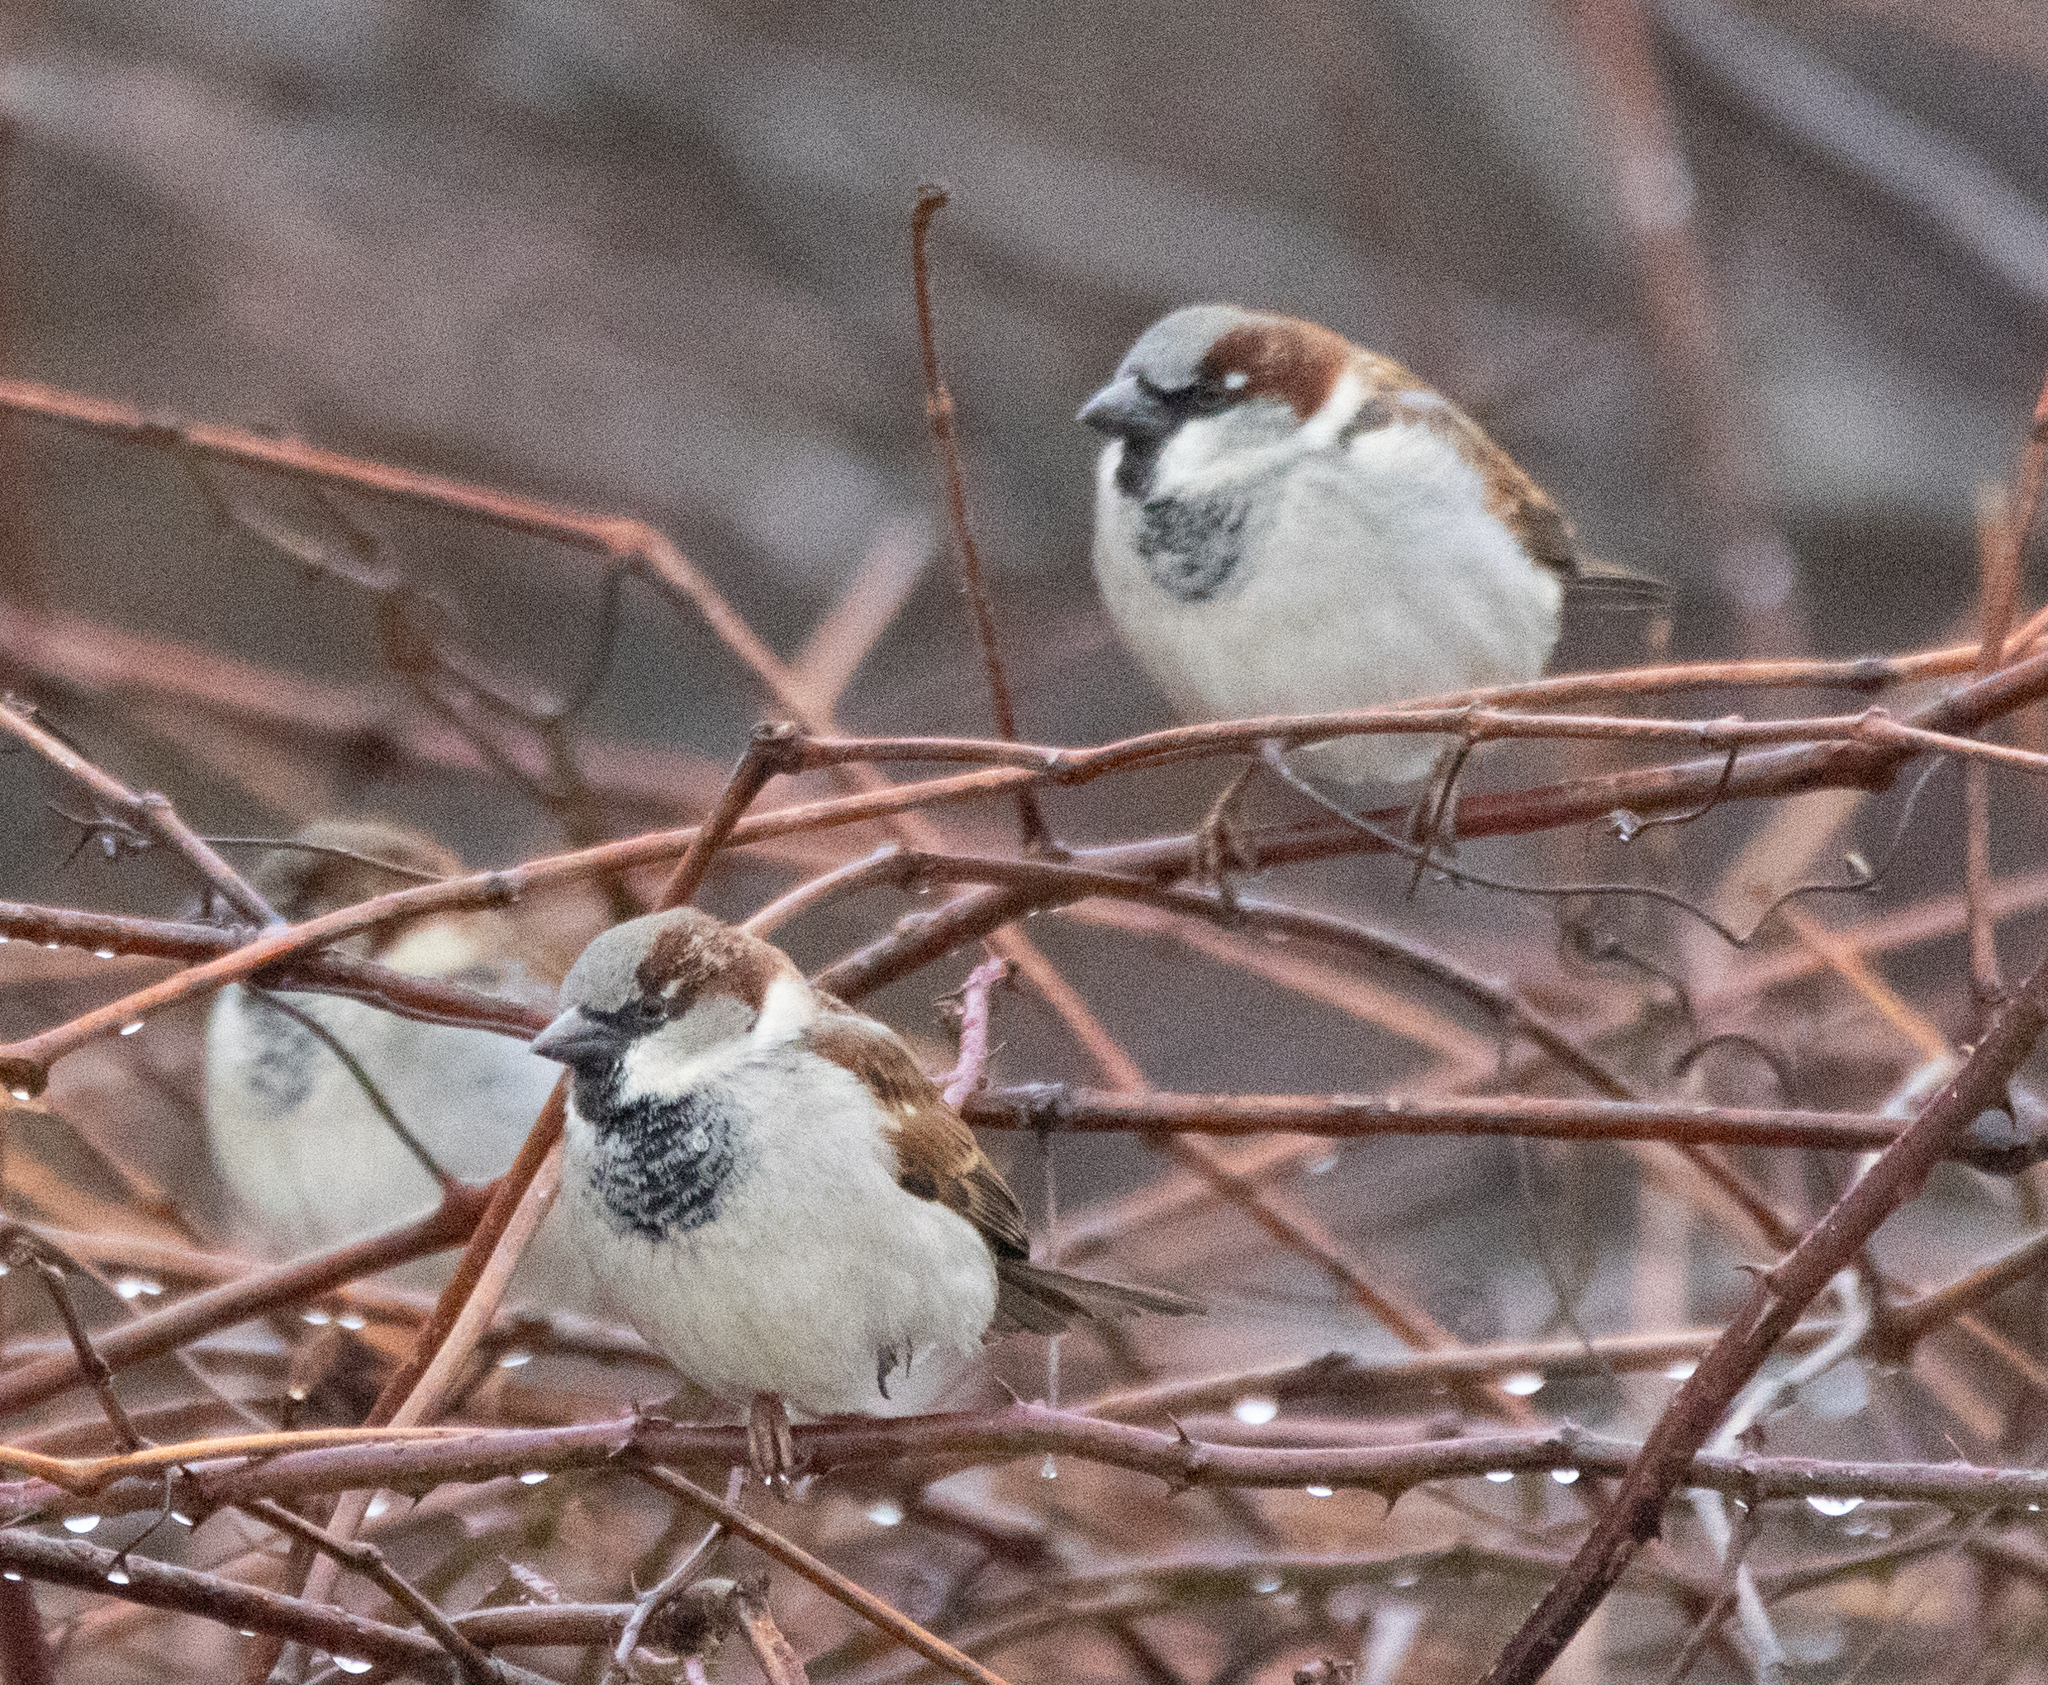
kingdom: Animalia
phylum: Chordata
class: Aves
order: Passeriformes
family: Passeridae
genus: Passer
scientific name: Passer domesticus
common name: House sparrow
